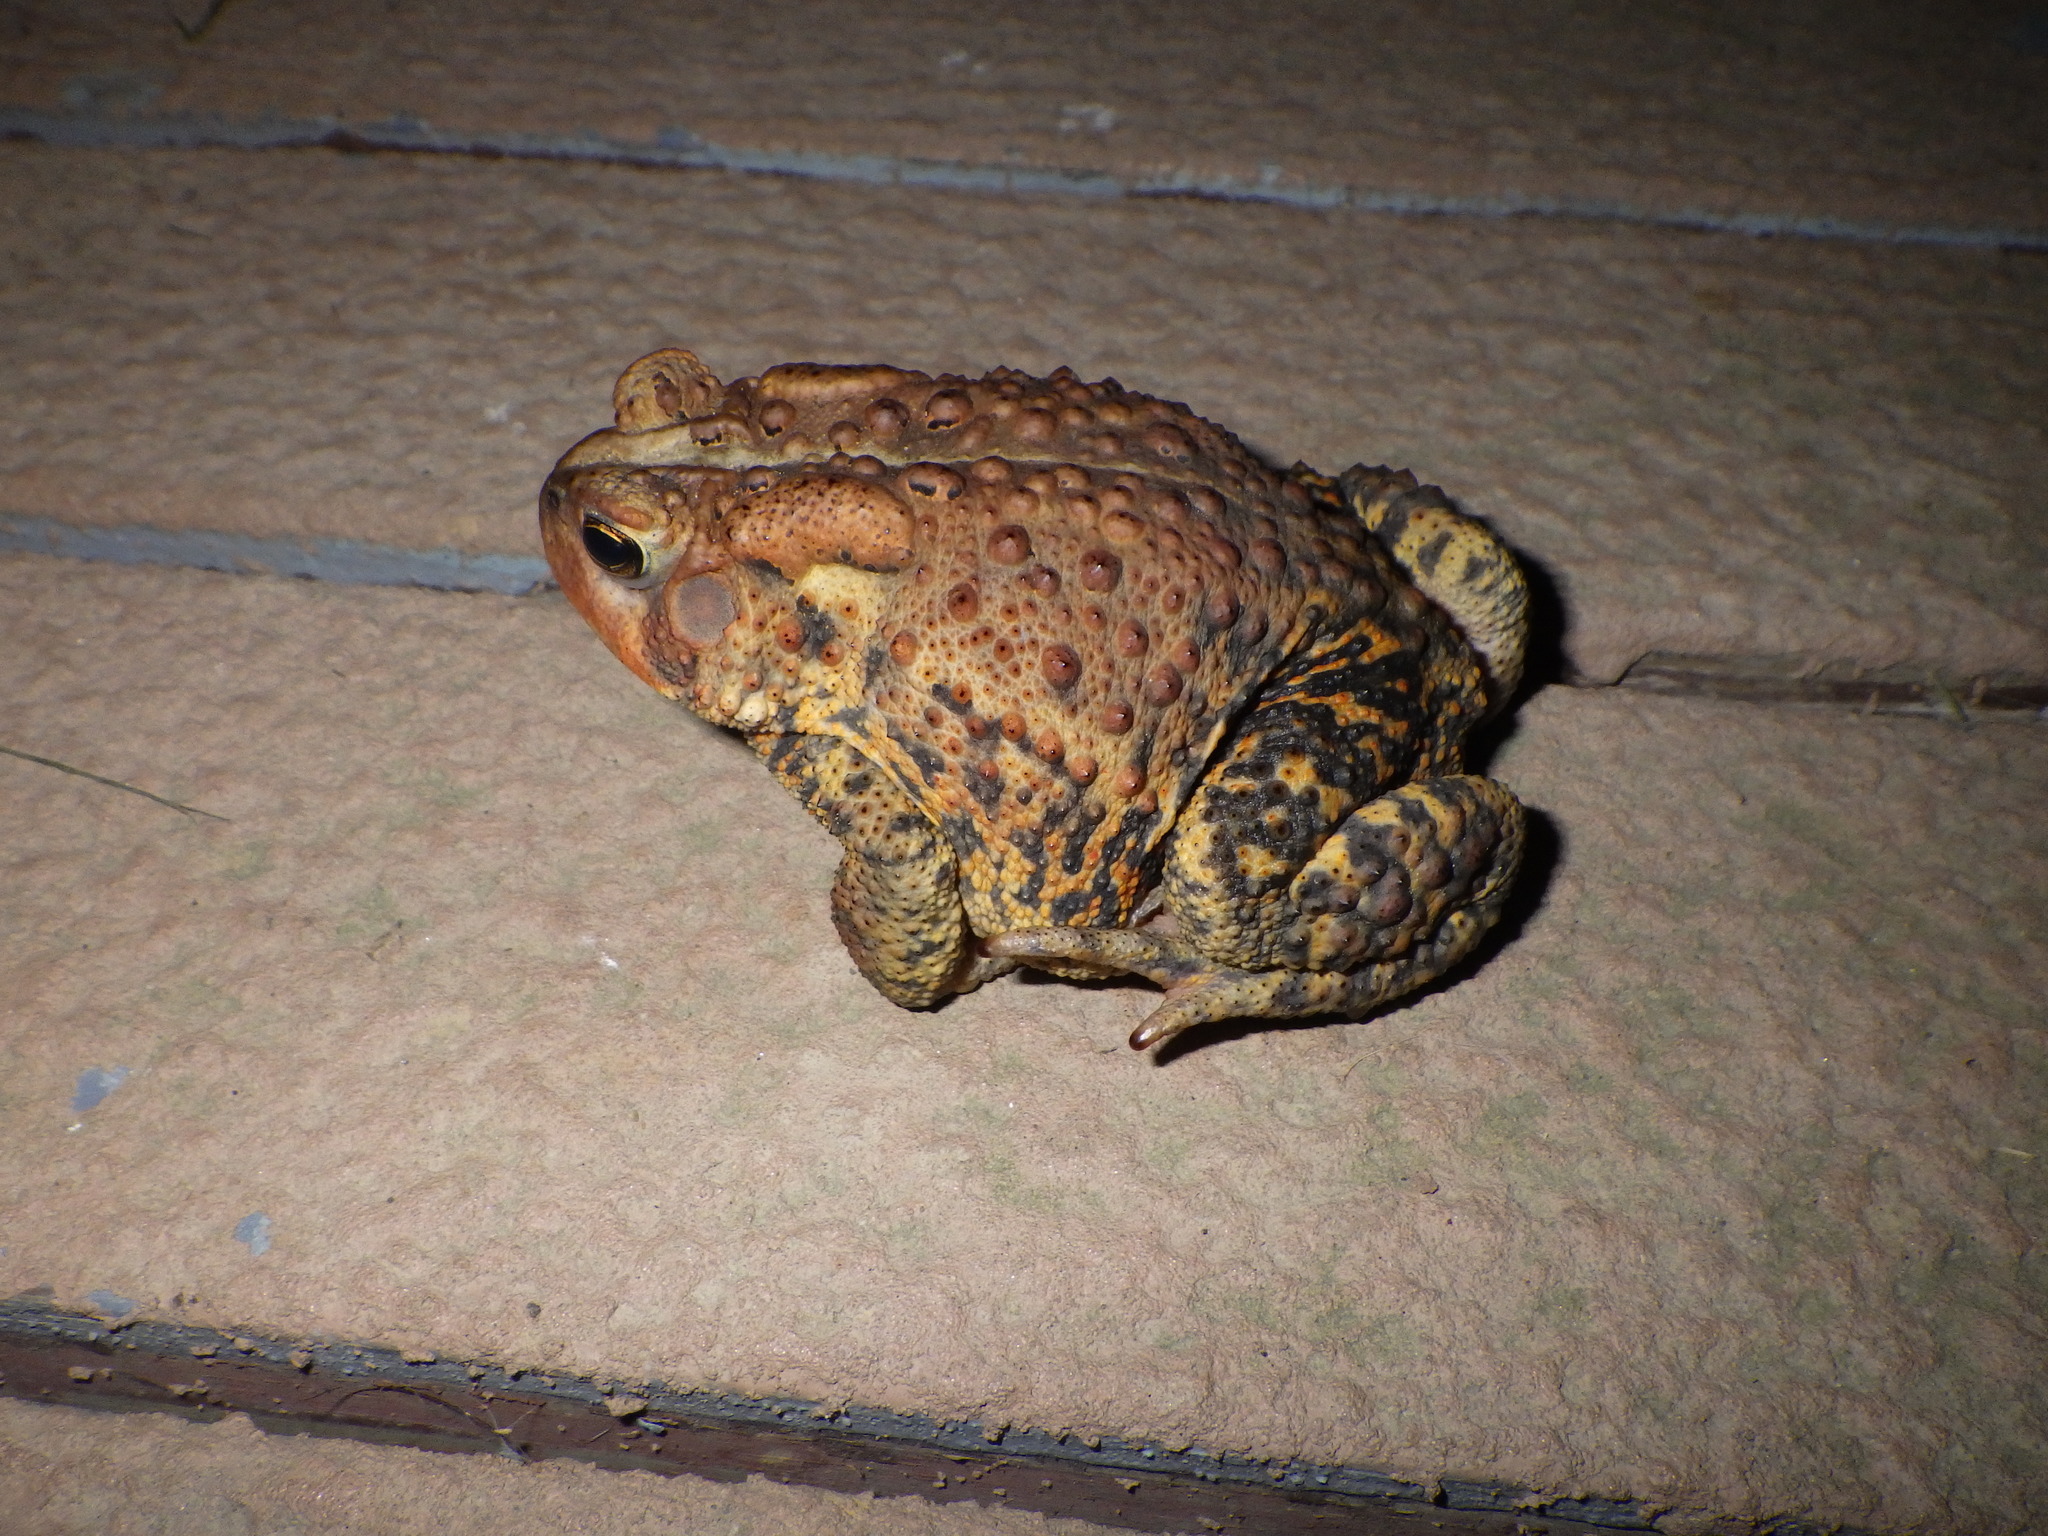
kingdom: Animalia
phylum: Chordata
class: Amphibia
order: Anura
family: Bufonidae
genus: Anaxyrus
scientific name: Anaxyrus americanus
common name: American toad
